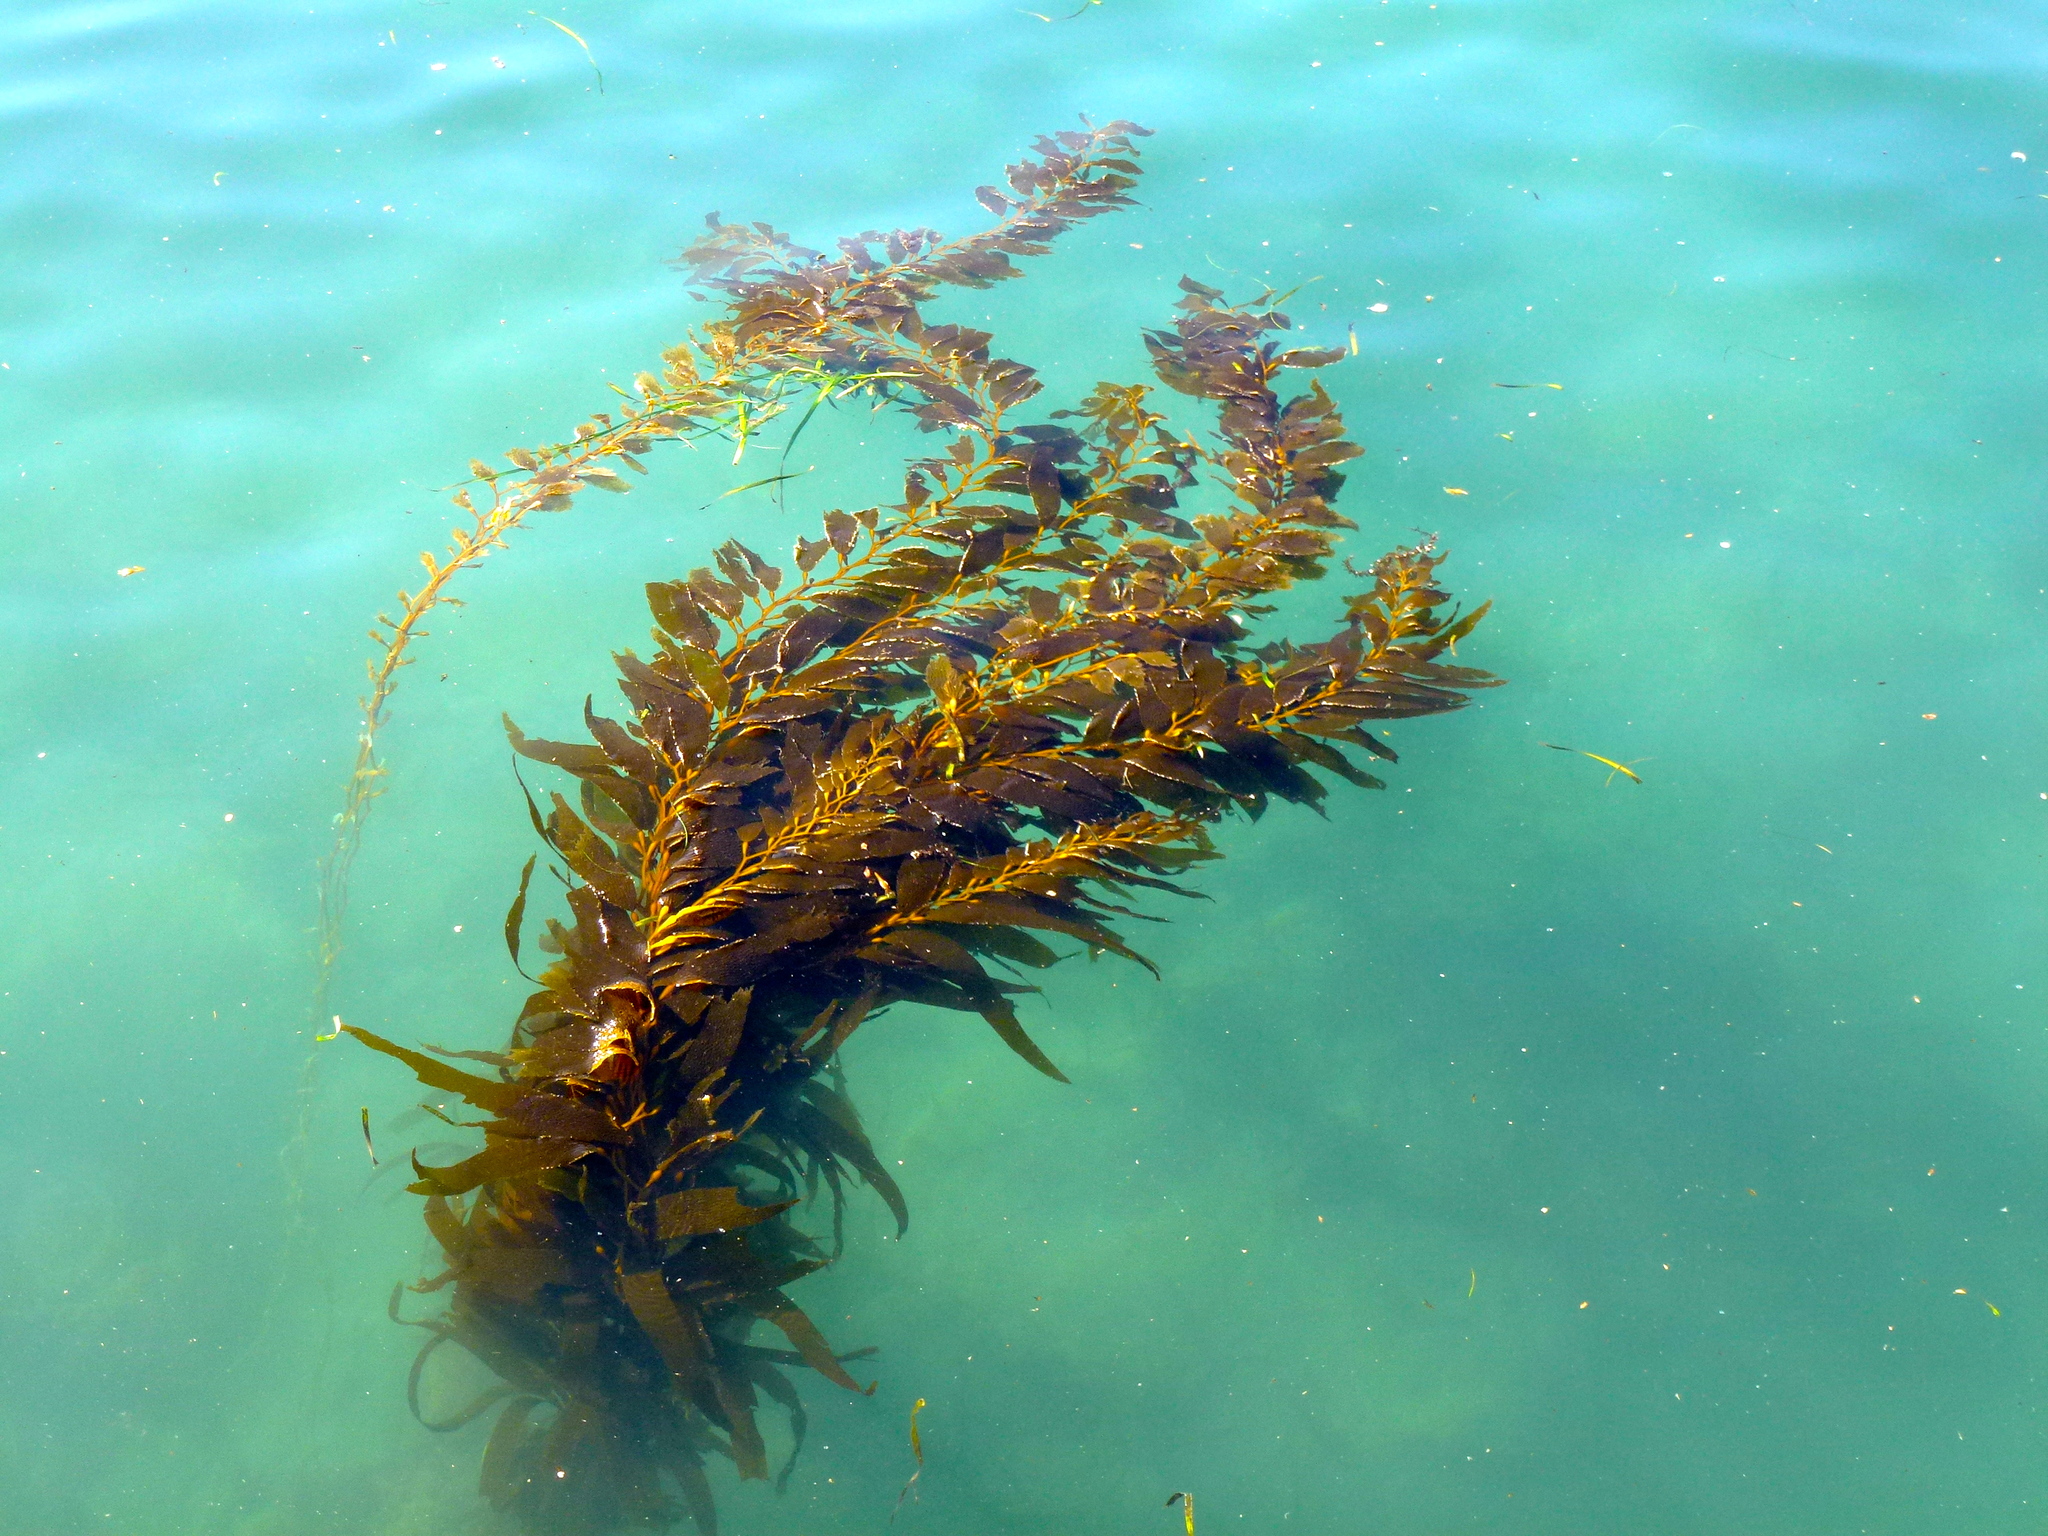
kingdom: Chromista
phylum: Ochrophyta
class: Phaeophyceae
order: Laminariales
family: Laminariaceae
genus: Macrocystis
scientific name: Macrocystis pyrifera
